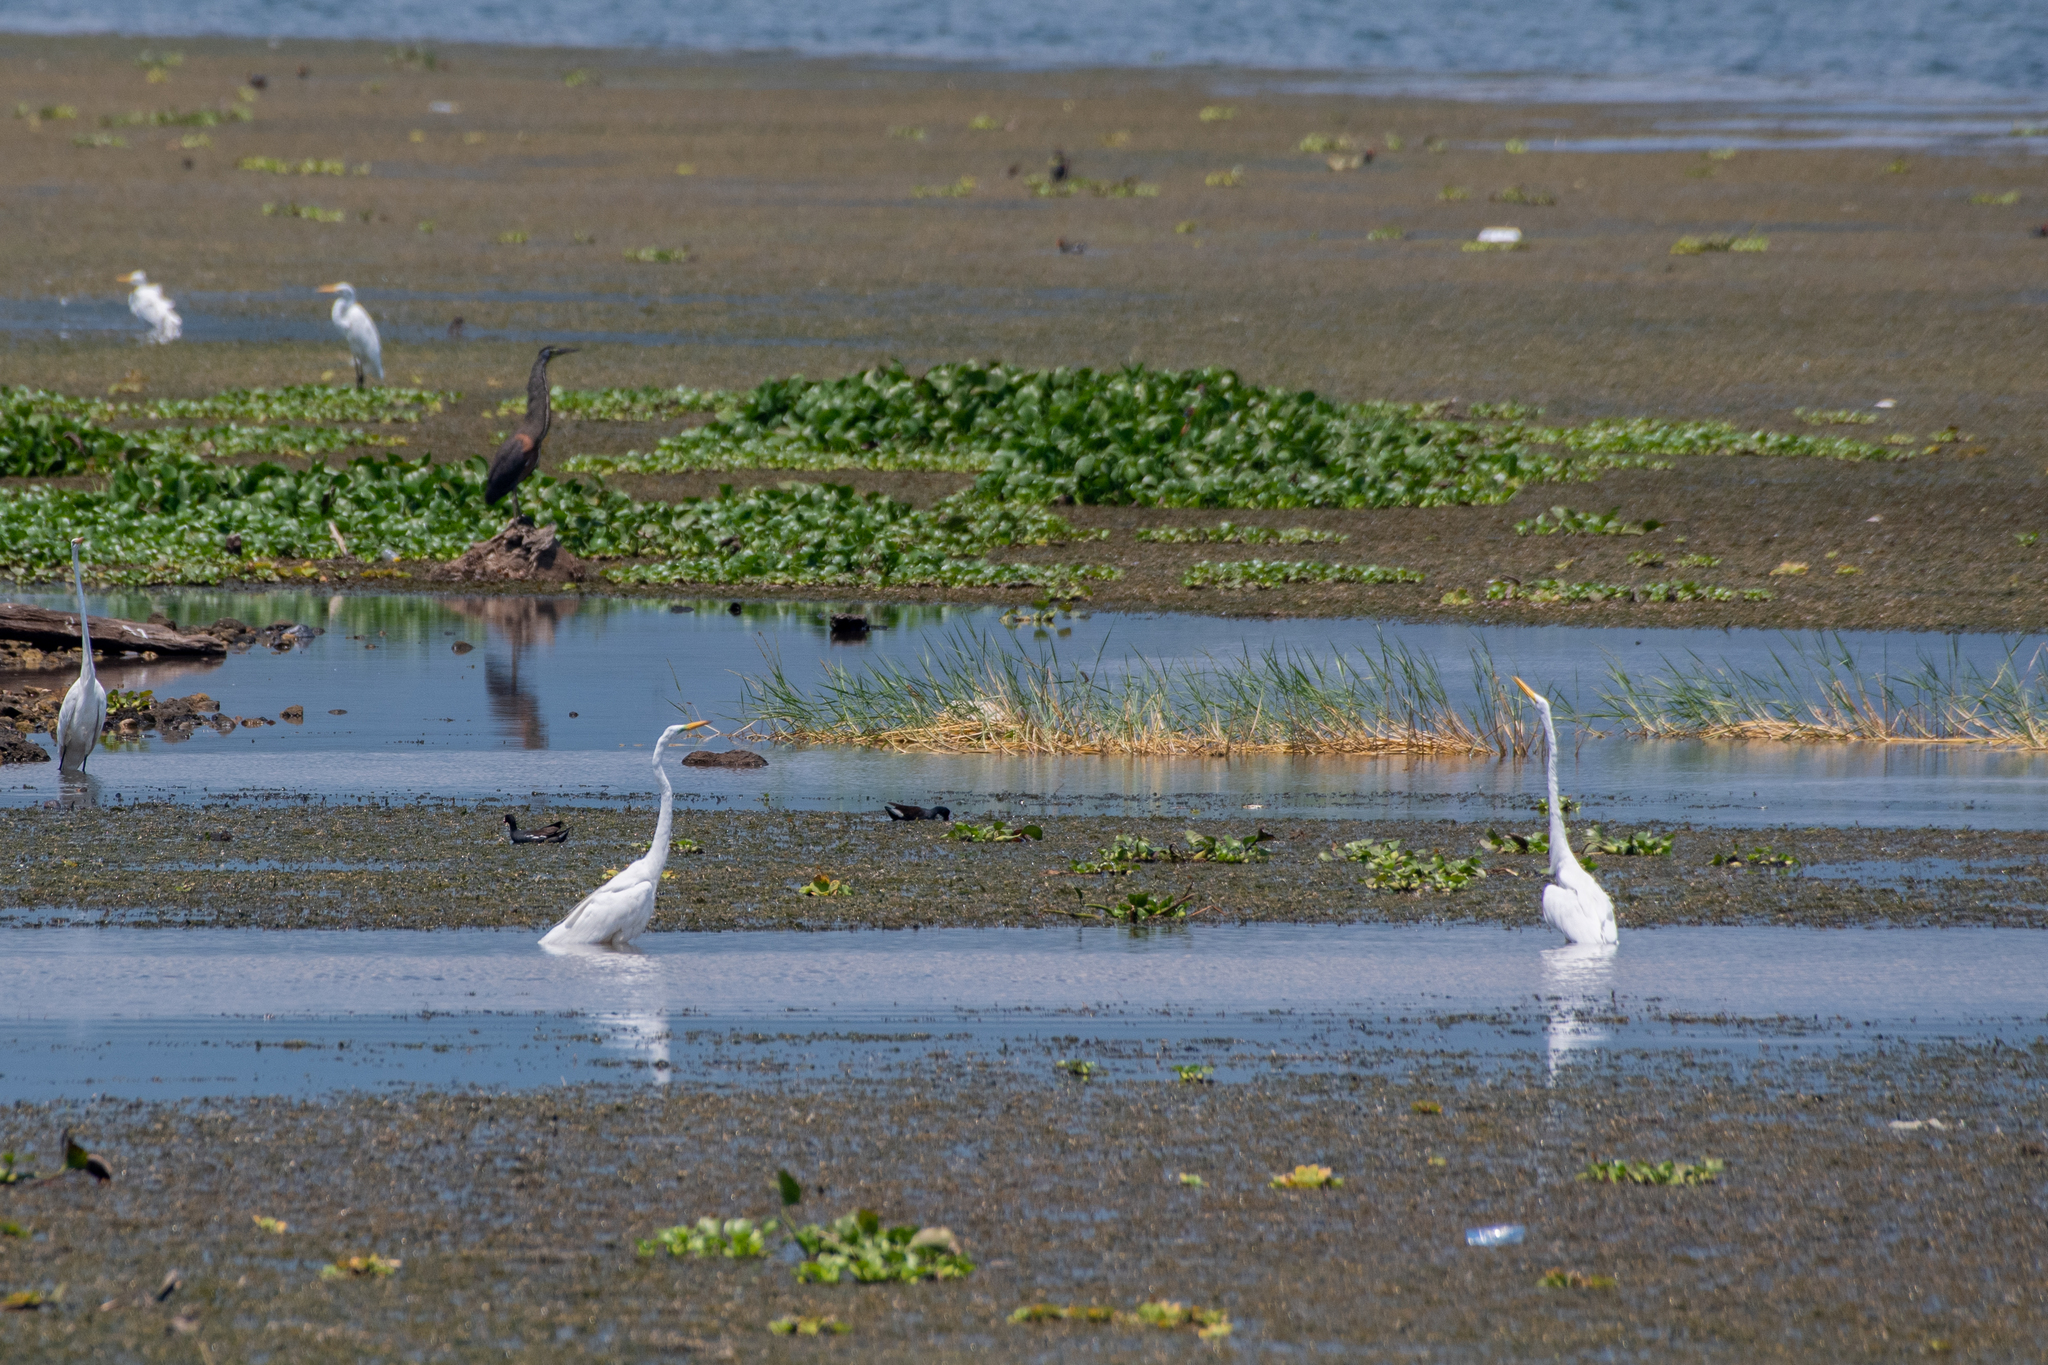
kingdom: Animalia
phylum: Chordata
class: Aves
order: Pelecaniformes
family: Ardeidae
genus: Ardea
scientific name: Ardea alba
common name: Great egret
